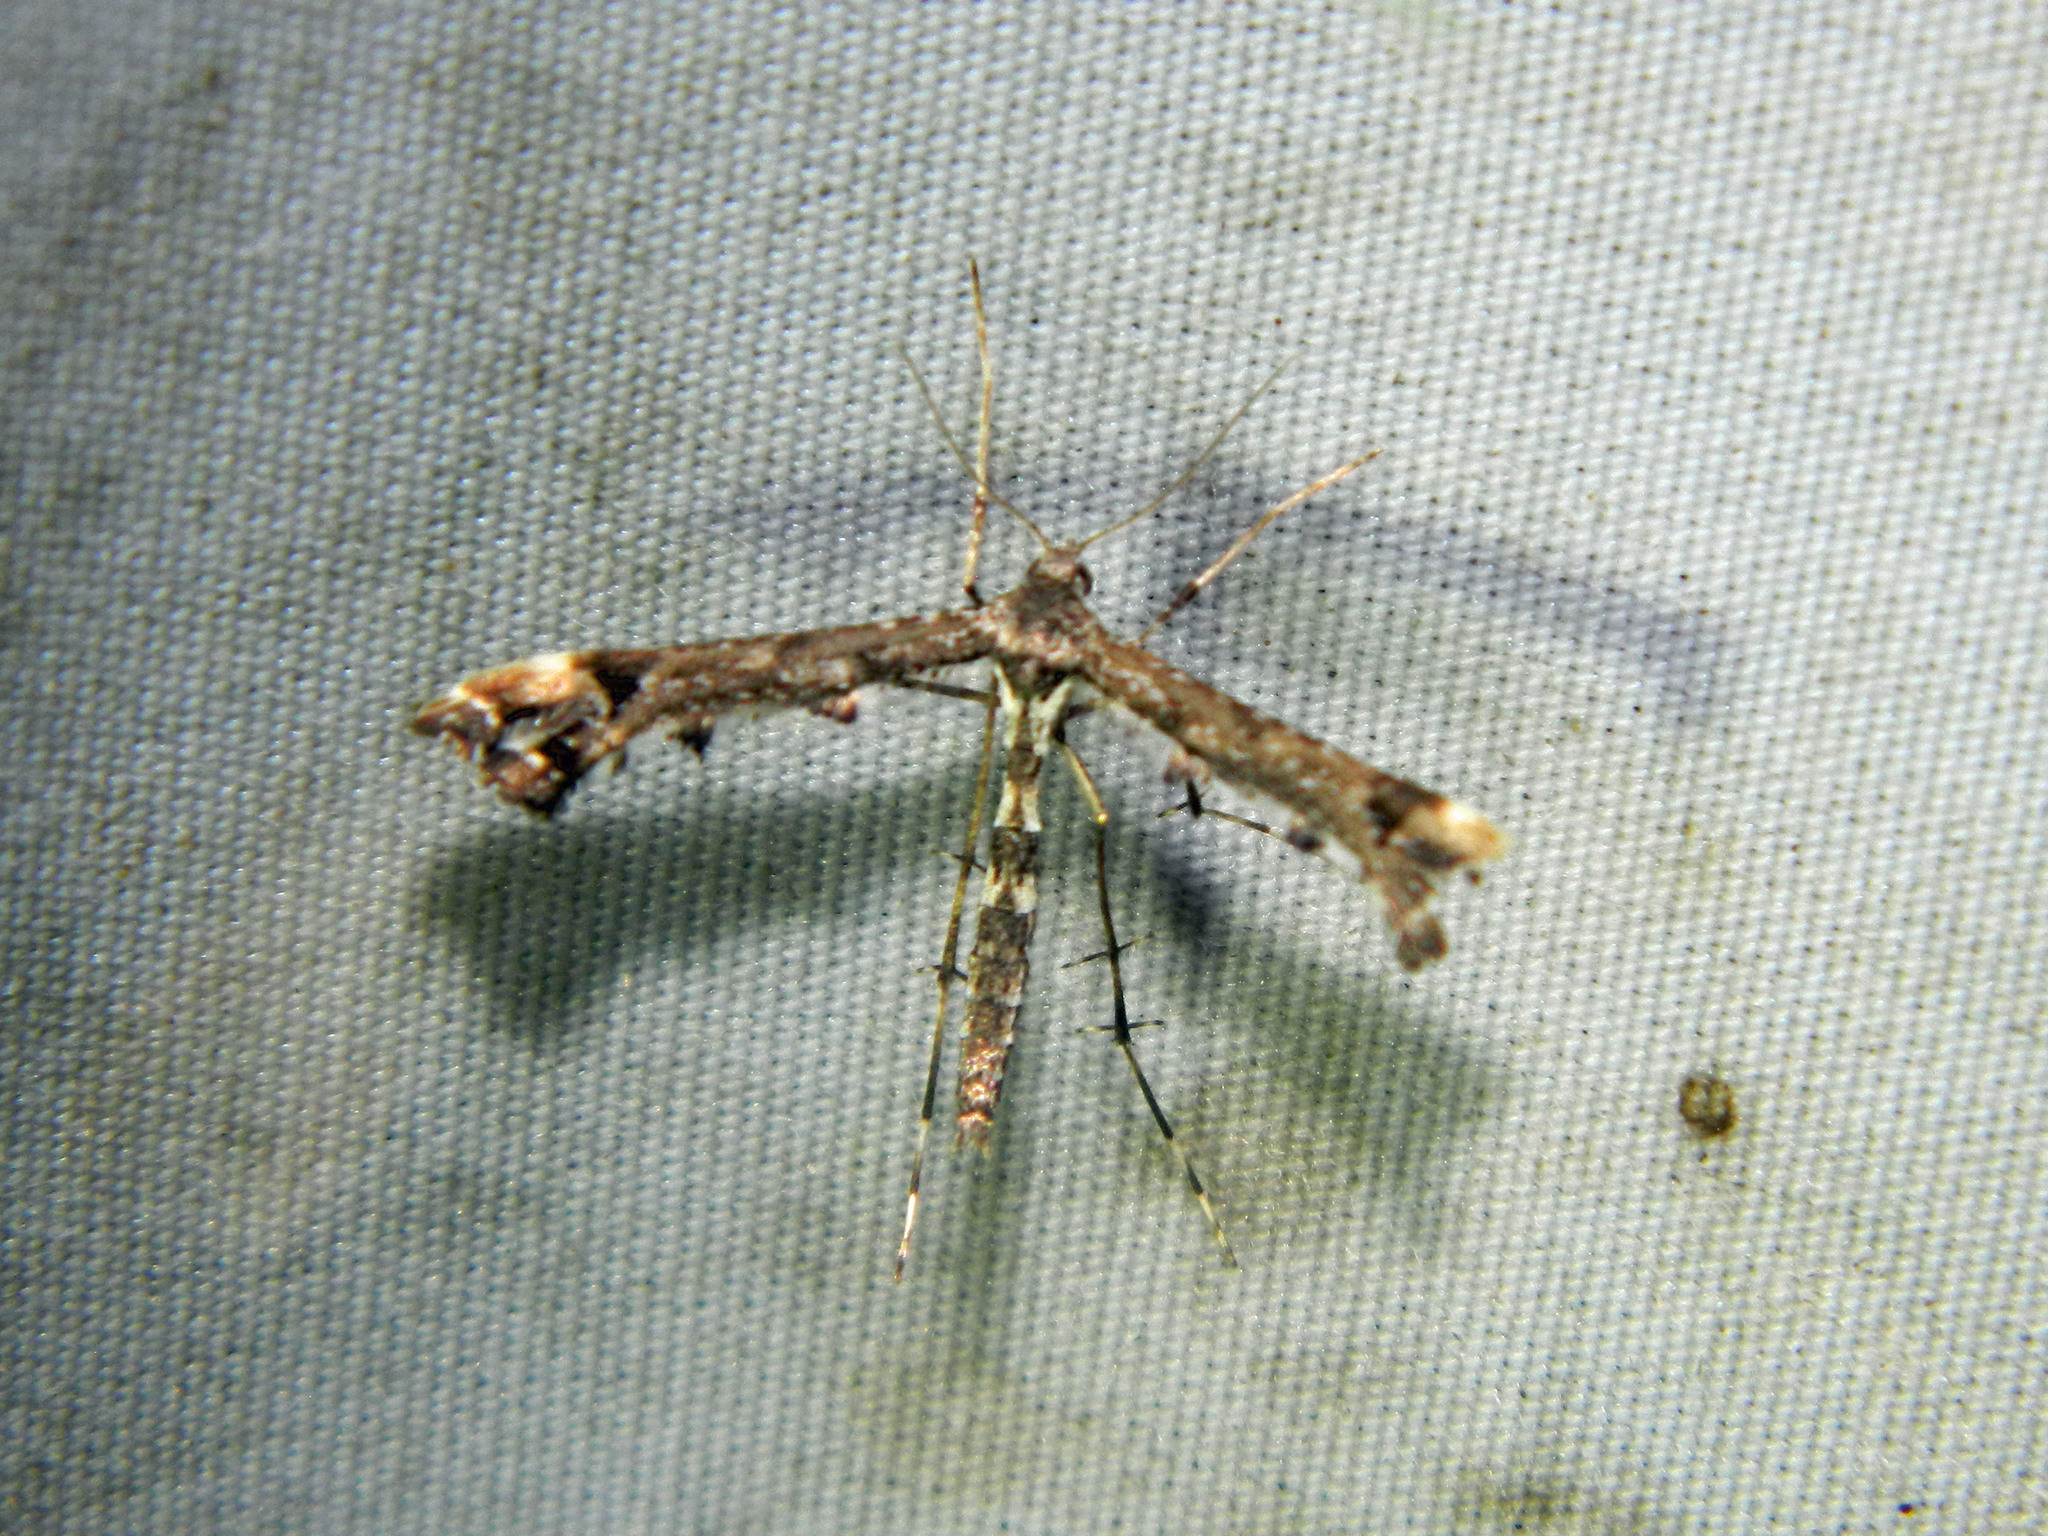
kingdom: Animalia
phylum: Arthropoda
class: Insecta
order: Lepidoptera
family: Pterophoridae
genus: Amblyptilia
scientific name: Amblyptilia pica
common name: Geranium plume moth
